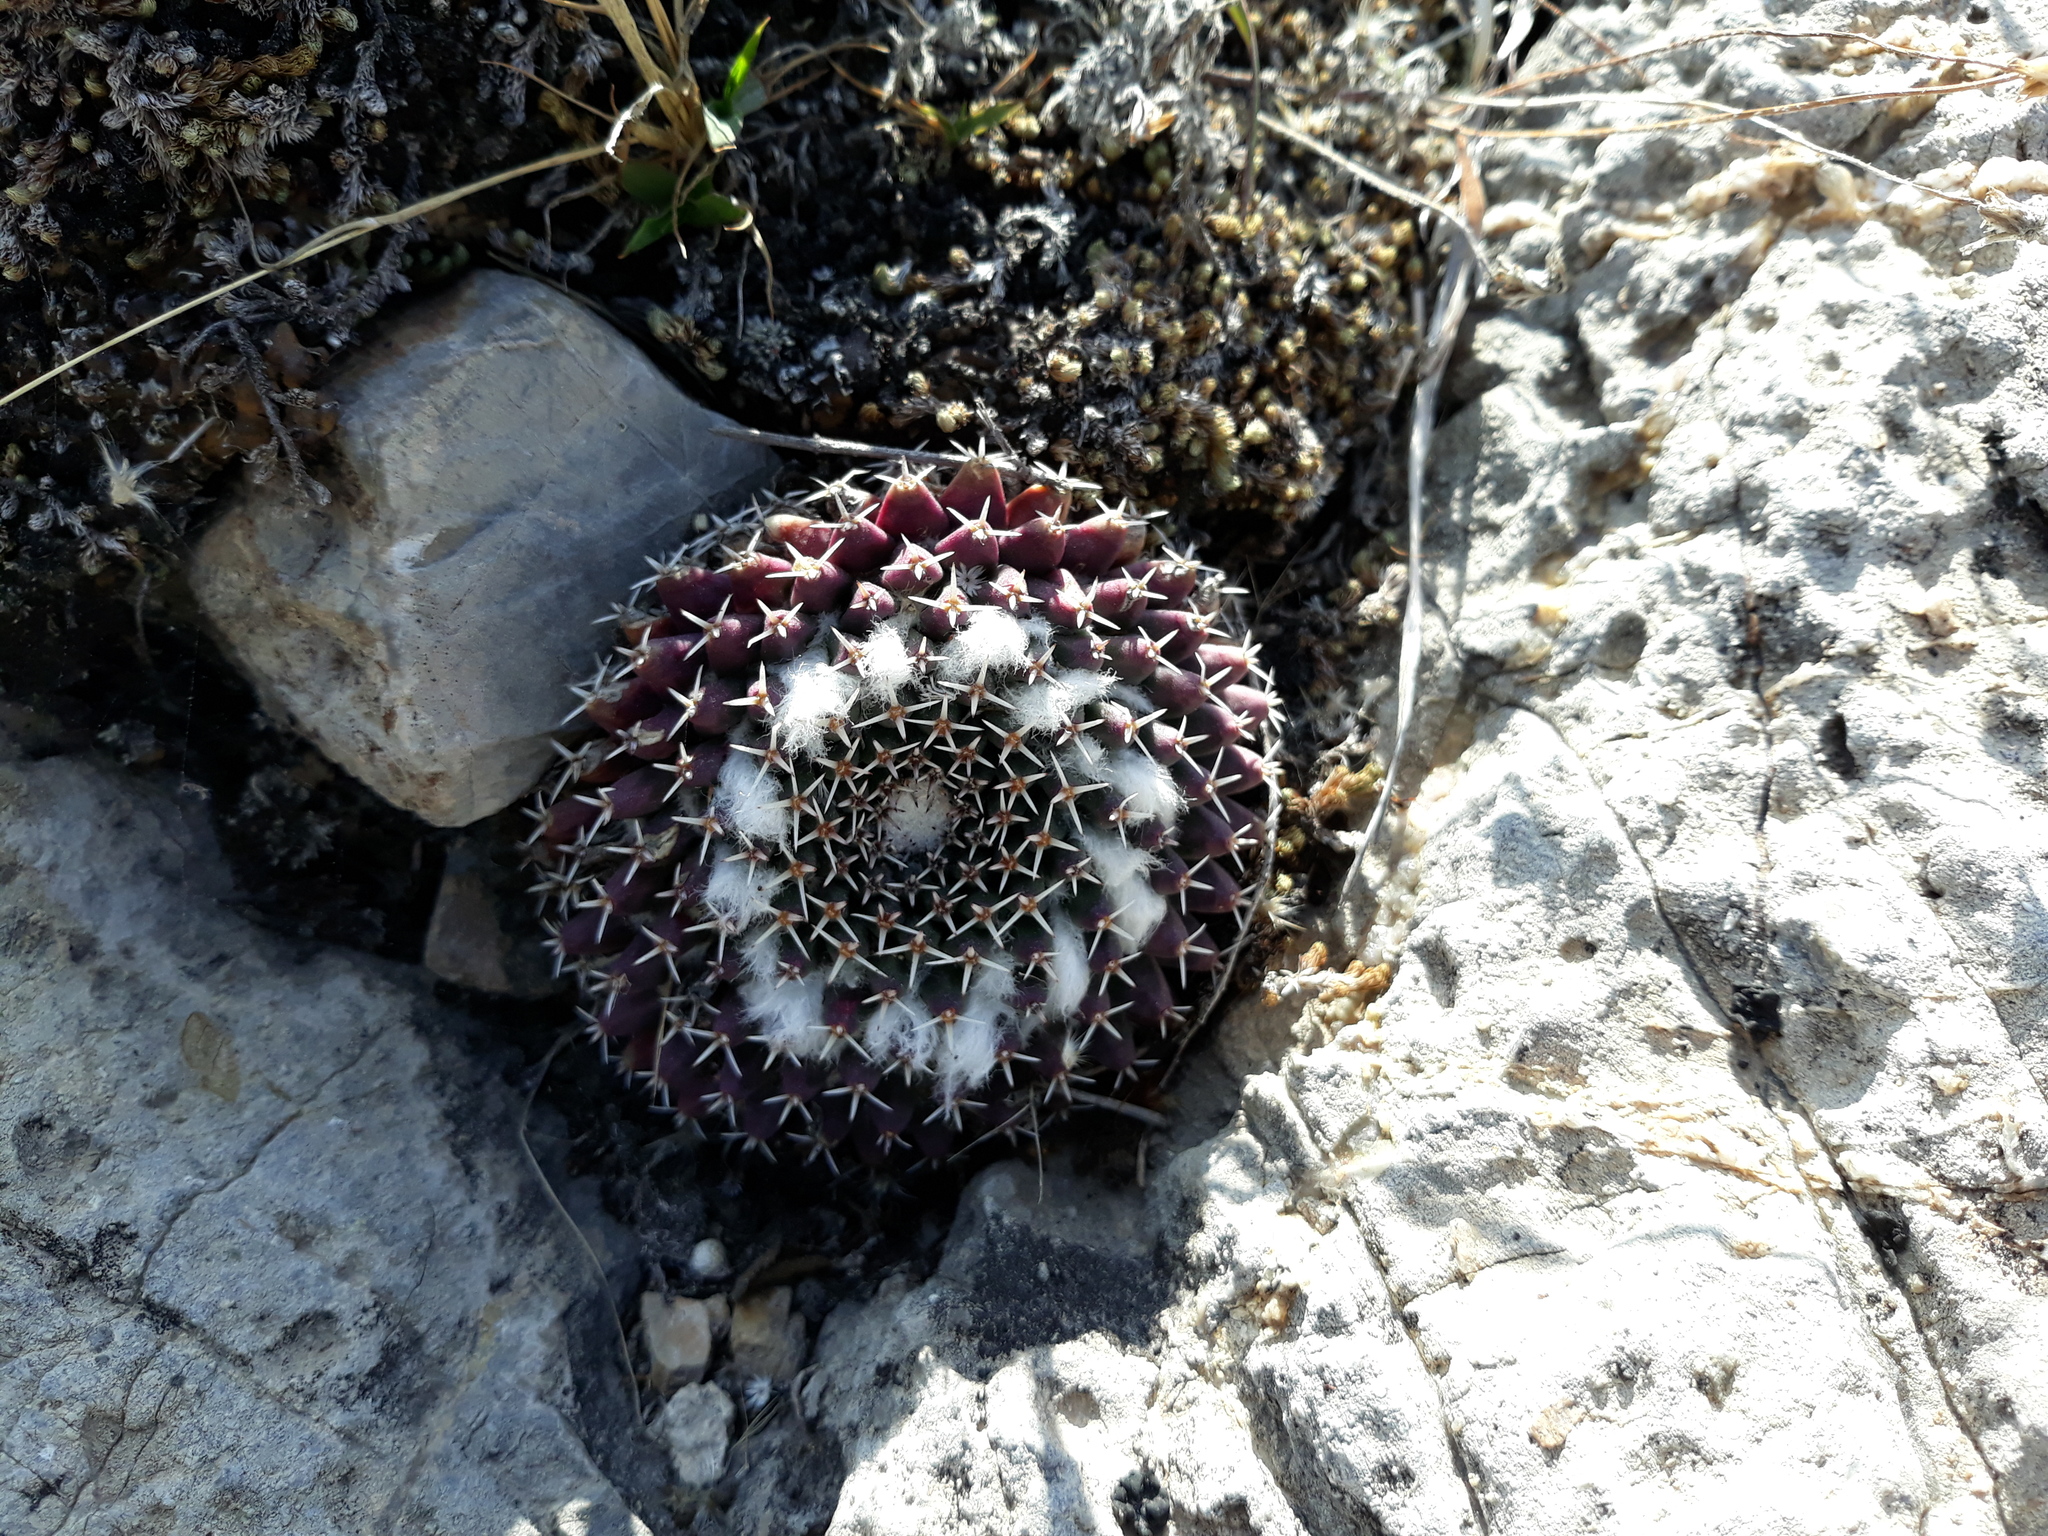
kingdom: Plantae
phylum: Tracheophyta
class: Magnoliopsida
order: Caryophyllales
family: Cactaceae
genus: Mammillaria
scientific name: Mammillaria
